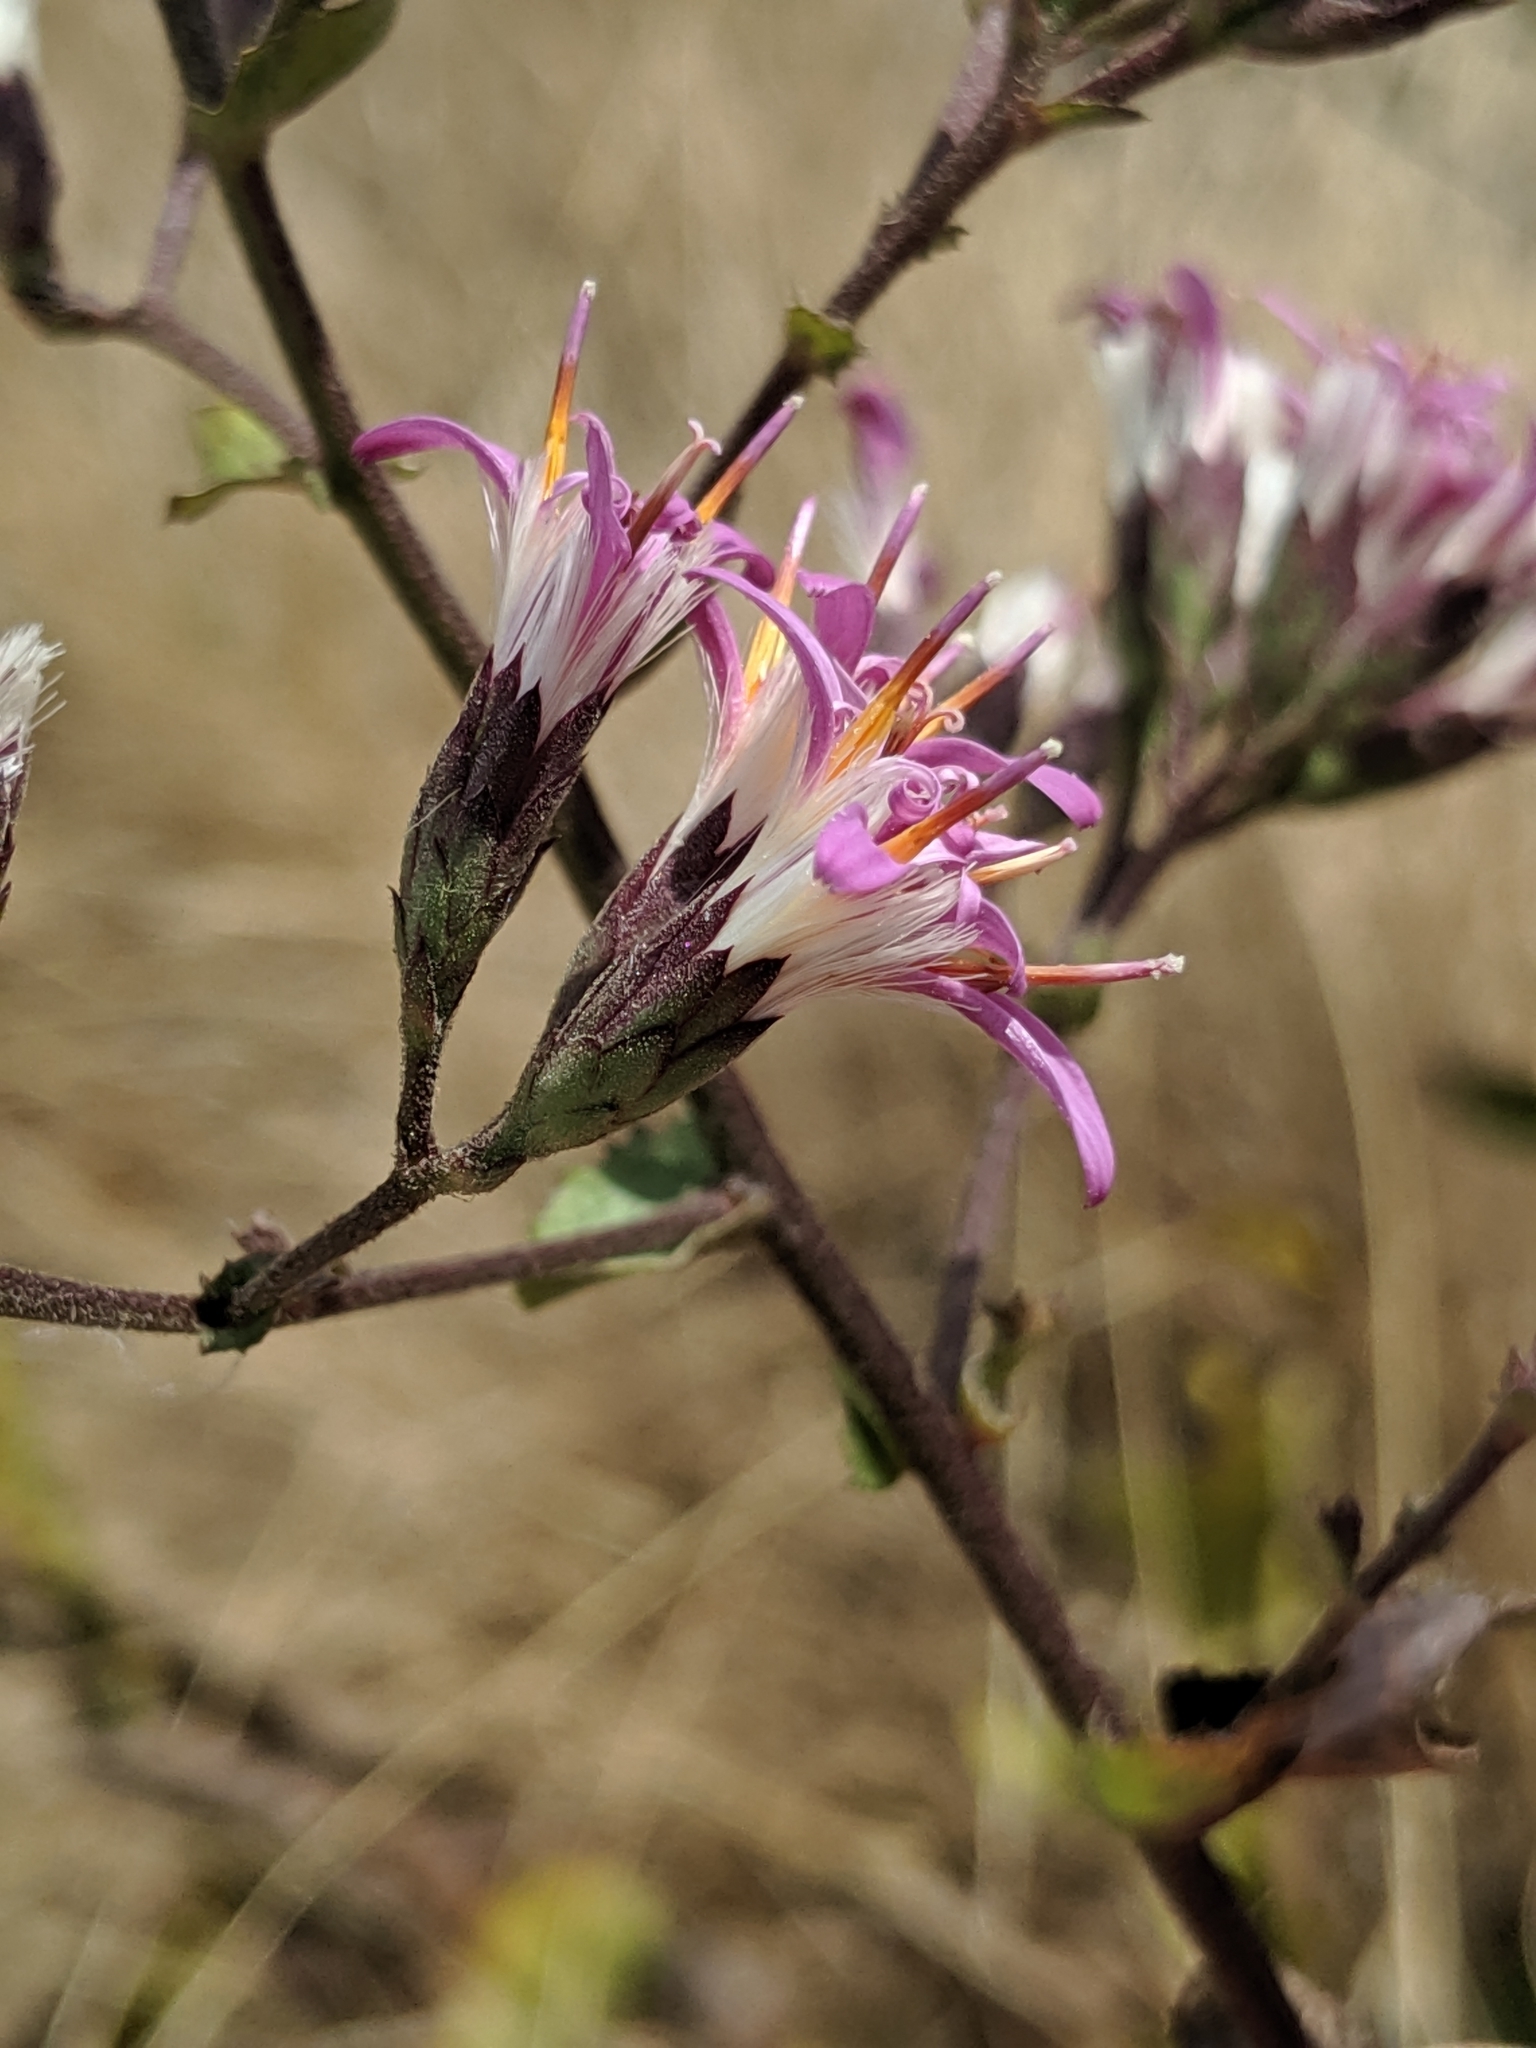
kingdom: Plantae
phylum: Tracheophyta
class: Magnoliopsida
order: Asterales
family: Asteraceae
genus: Acourtia
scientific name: Acourtia microcephala
